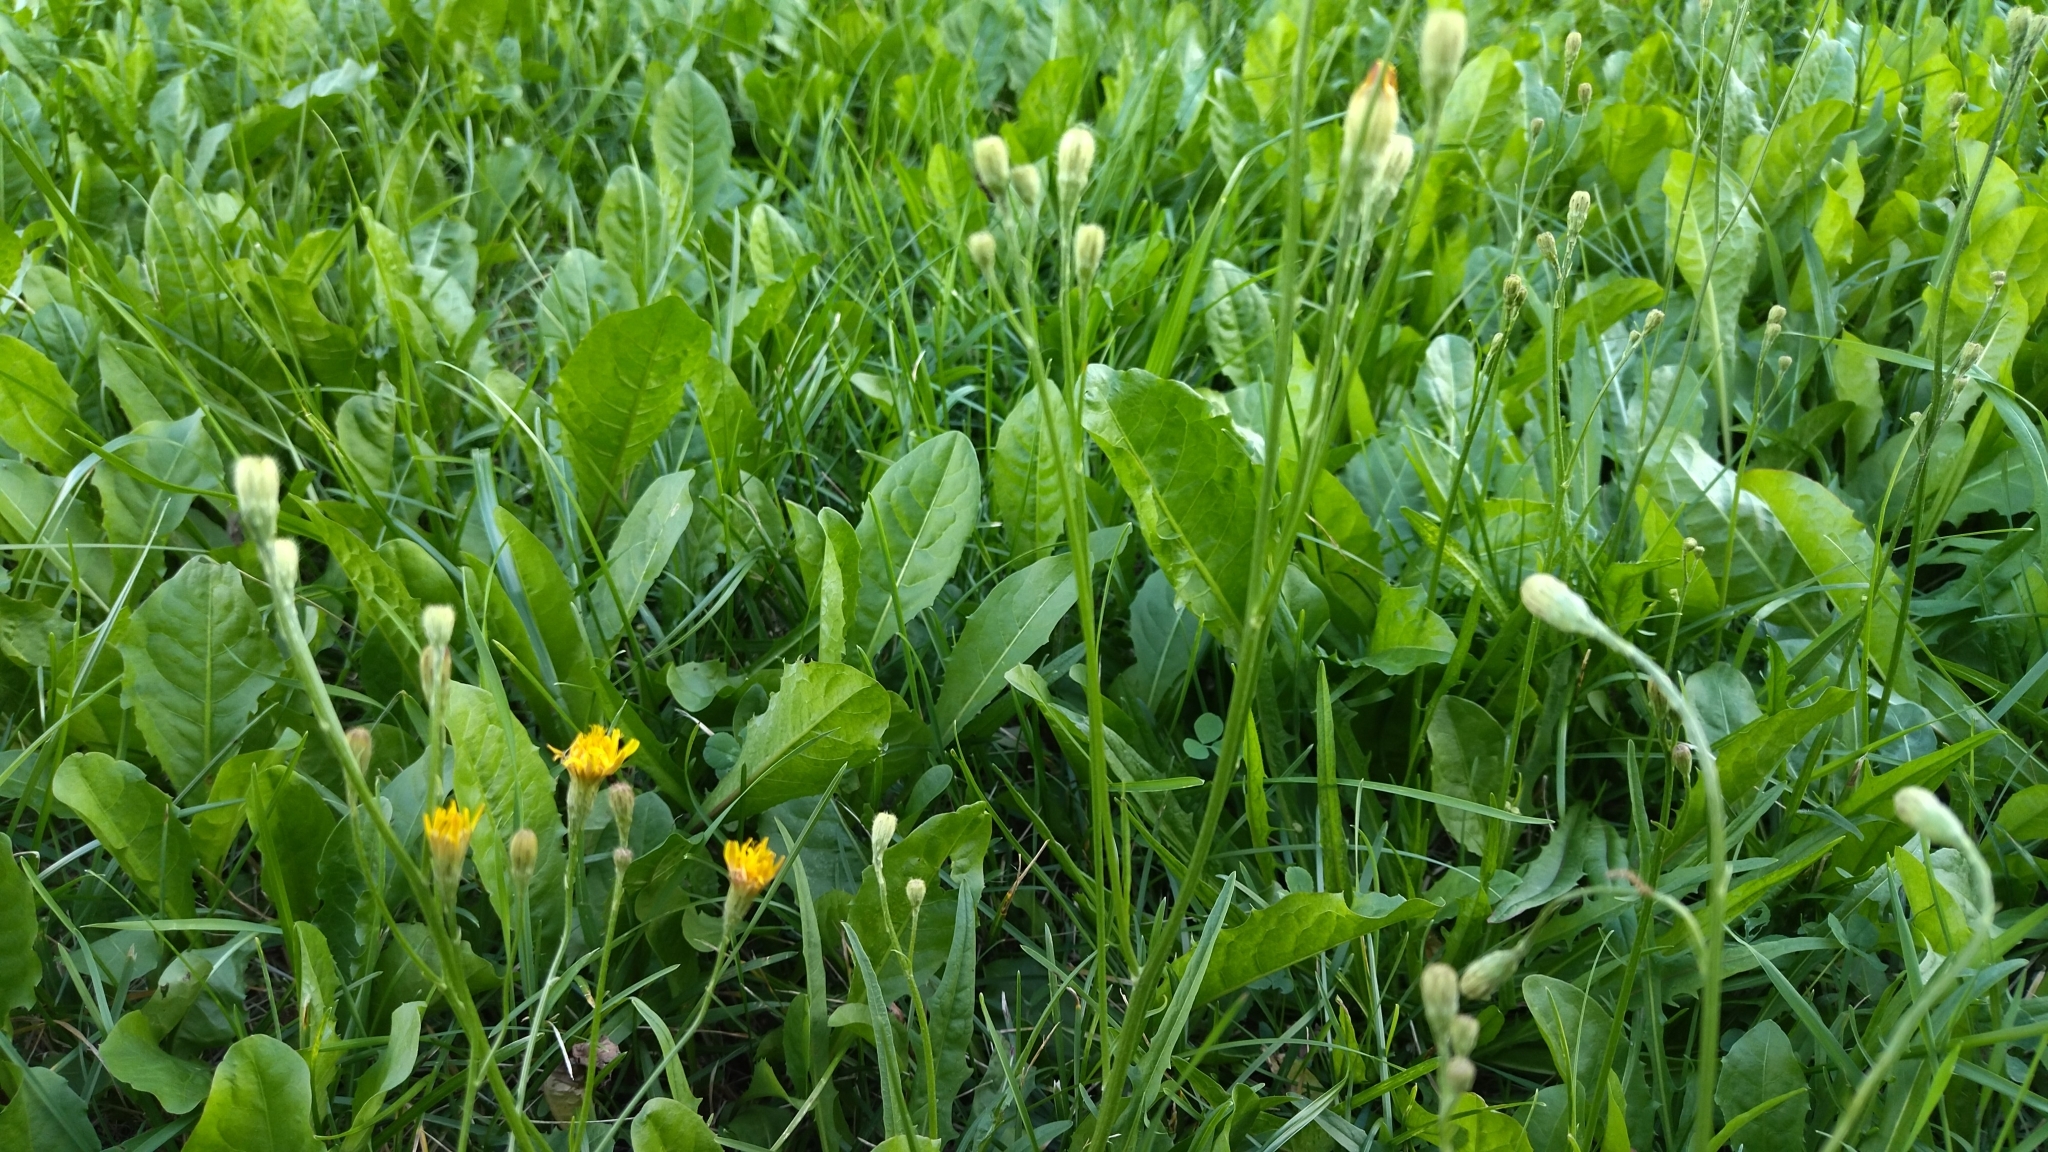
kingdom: Plantae
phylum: Tracheophyta
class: Magnoliopsida
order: Asterales
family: Asteraceae
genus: Scorzoneroides
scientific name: Scorzoneroides autumnalis
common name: Autumn hawkbit
